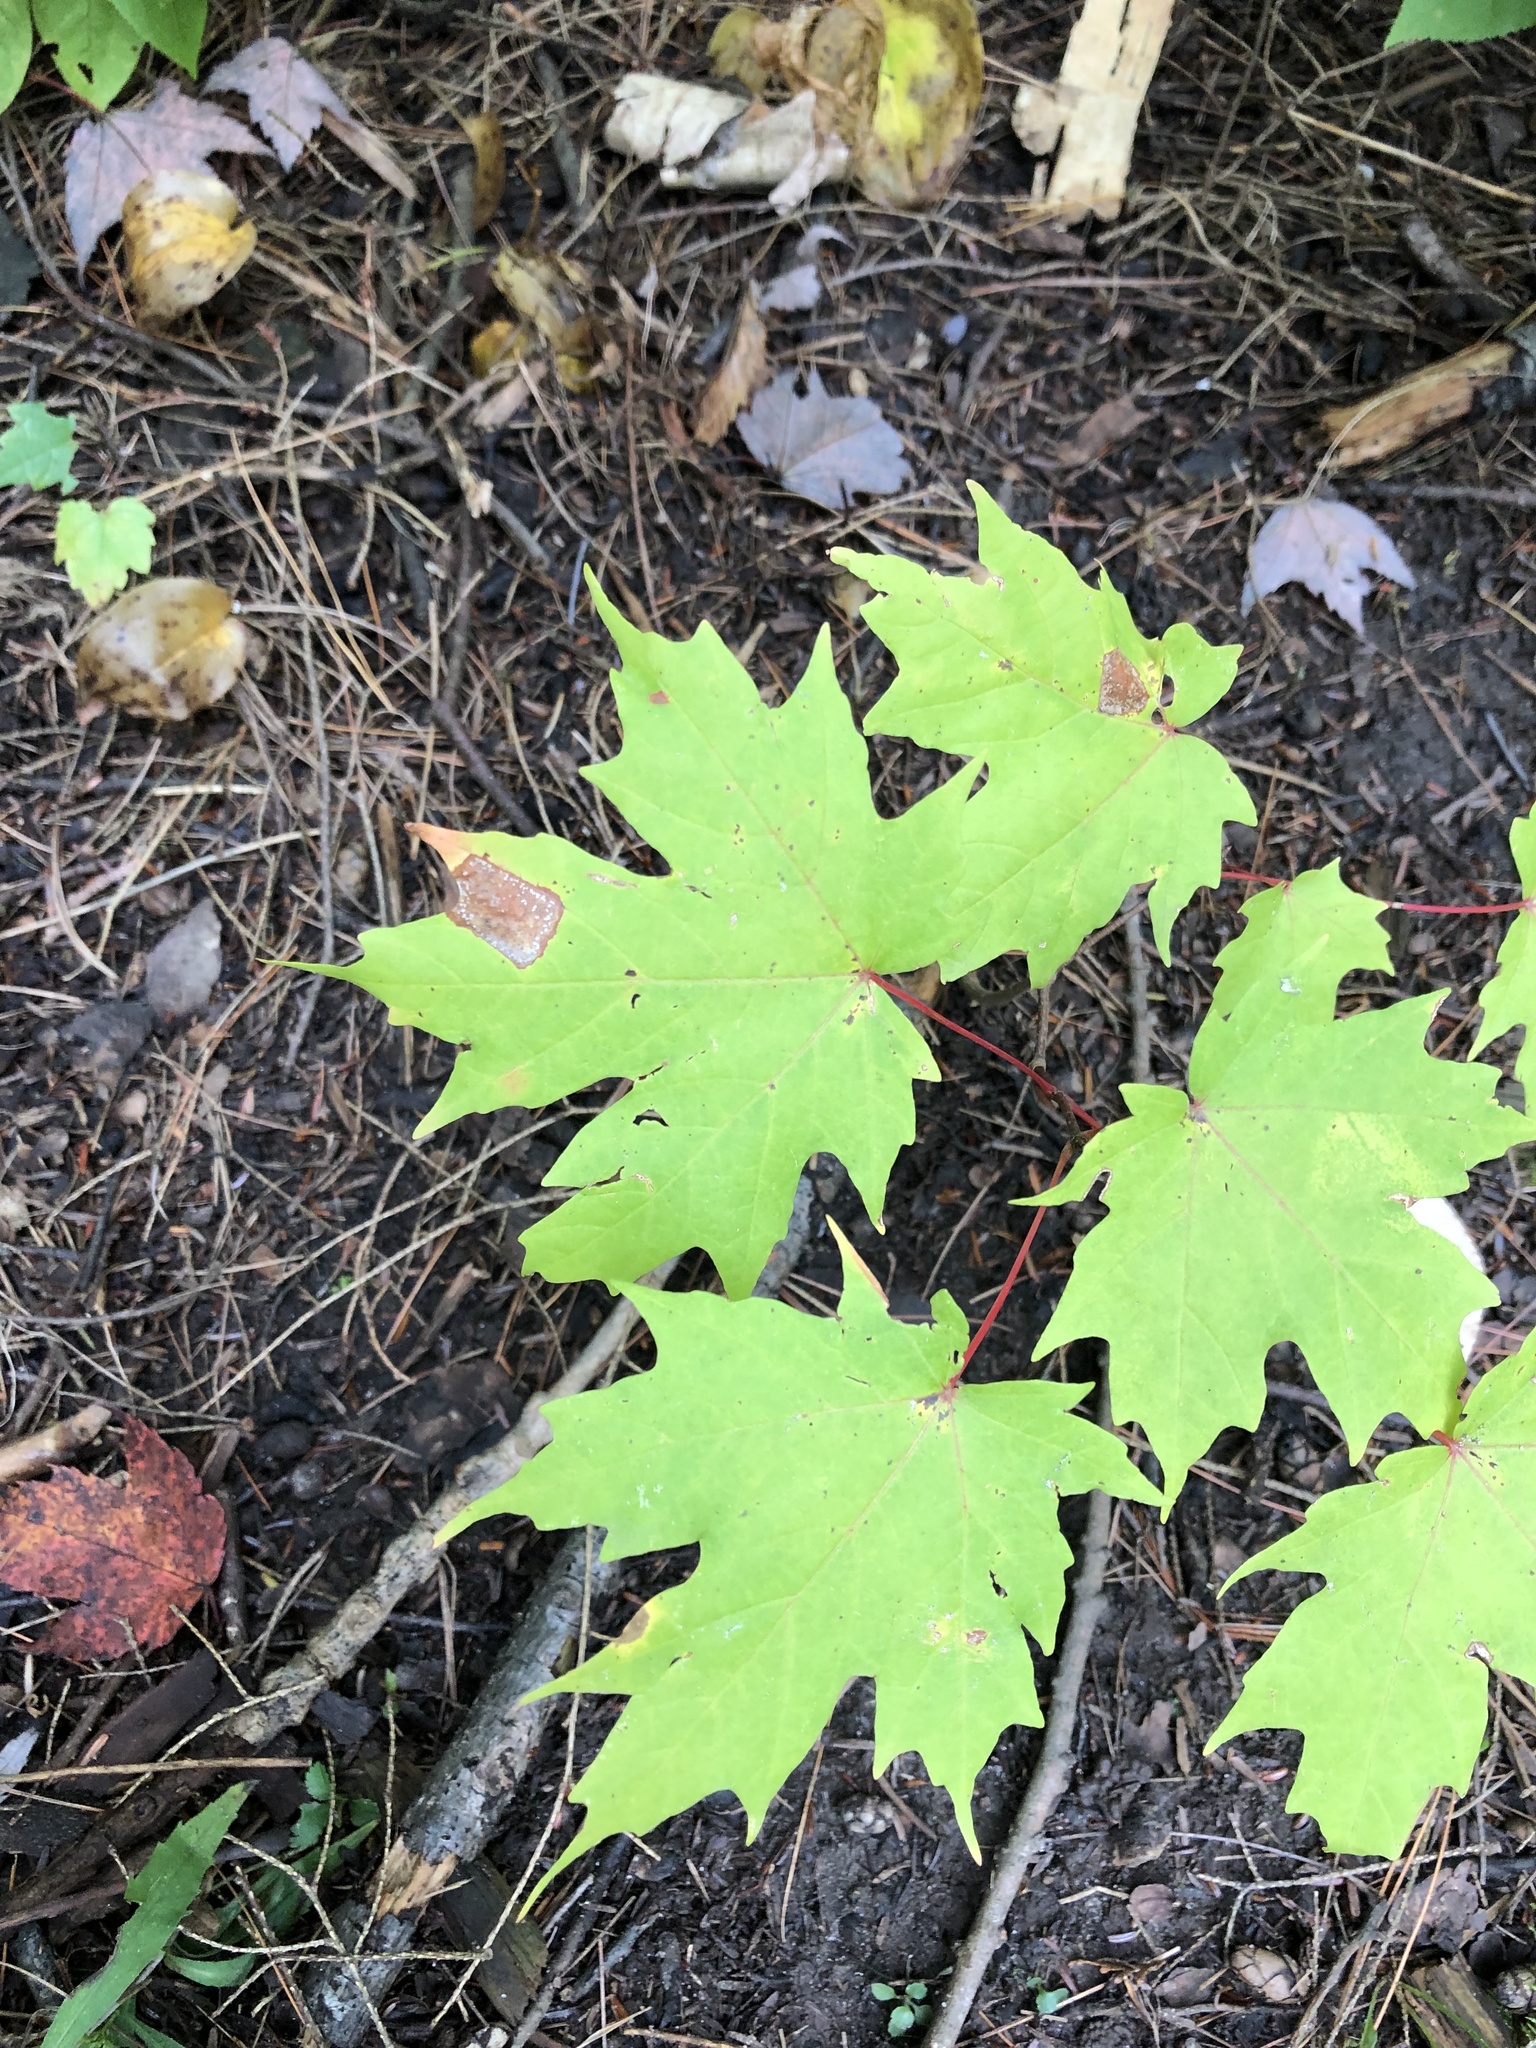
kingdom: Plantae
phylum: Tracheophyta
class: Magnoliopsida
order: Sapindales
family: Sapindaceae
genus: Acer
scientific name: Acer saccharum
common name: Sugar maple
